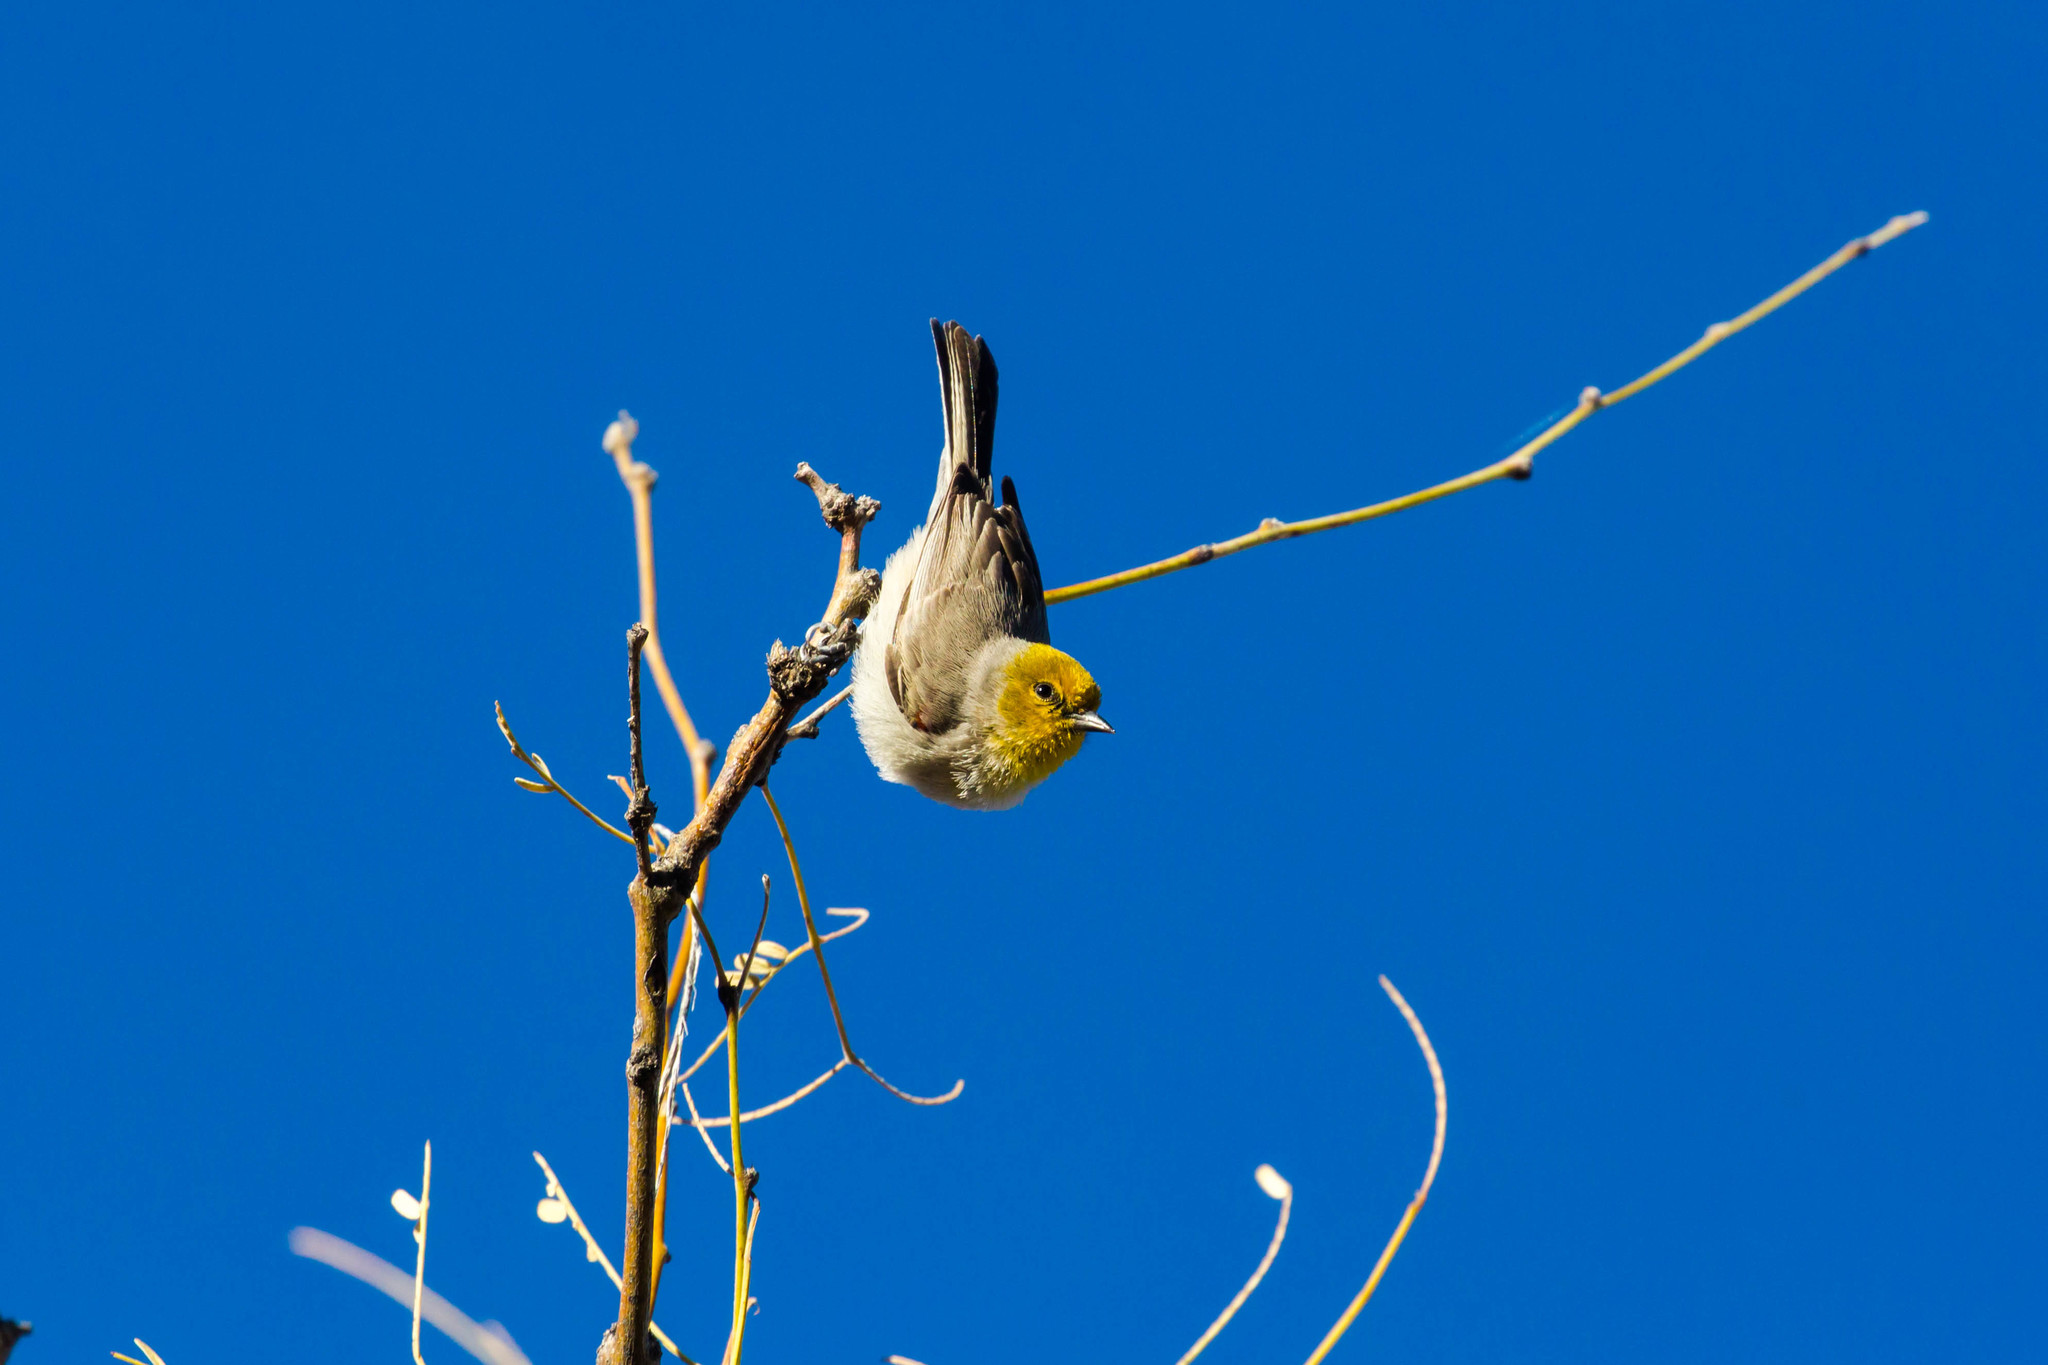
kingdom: Animalia
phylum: Chordata
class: Aves
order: Passeriformes
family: Remizidae
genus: Auriparus
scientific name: Auriparus flaviceps
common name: Verdin
